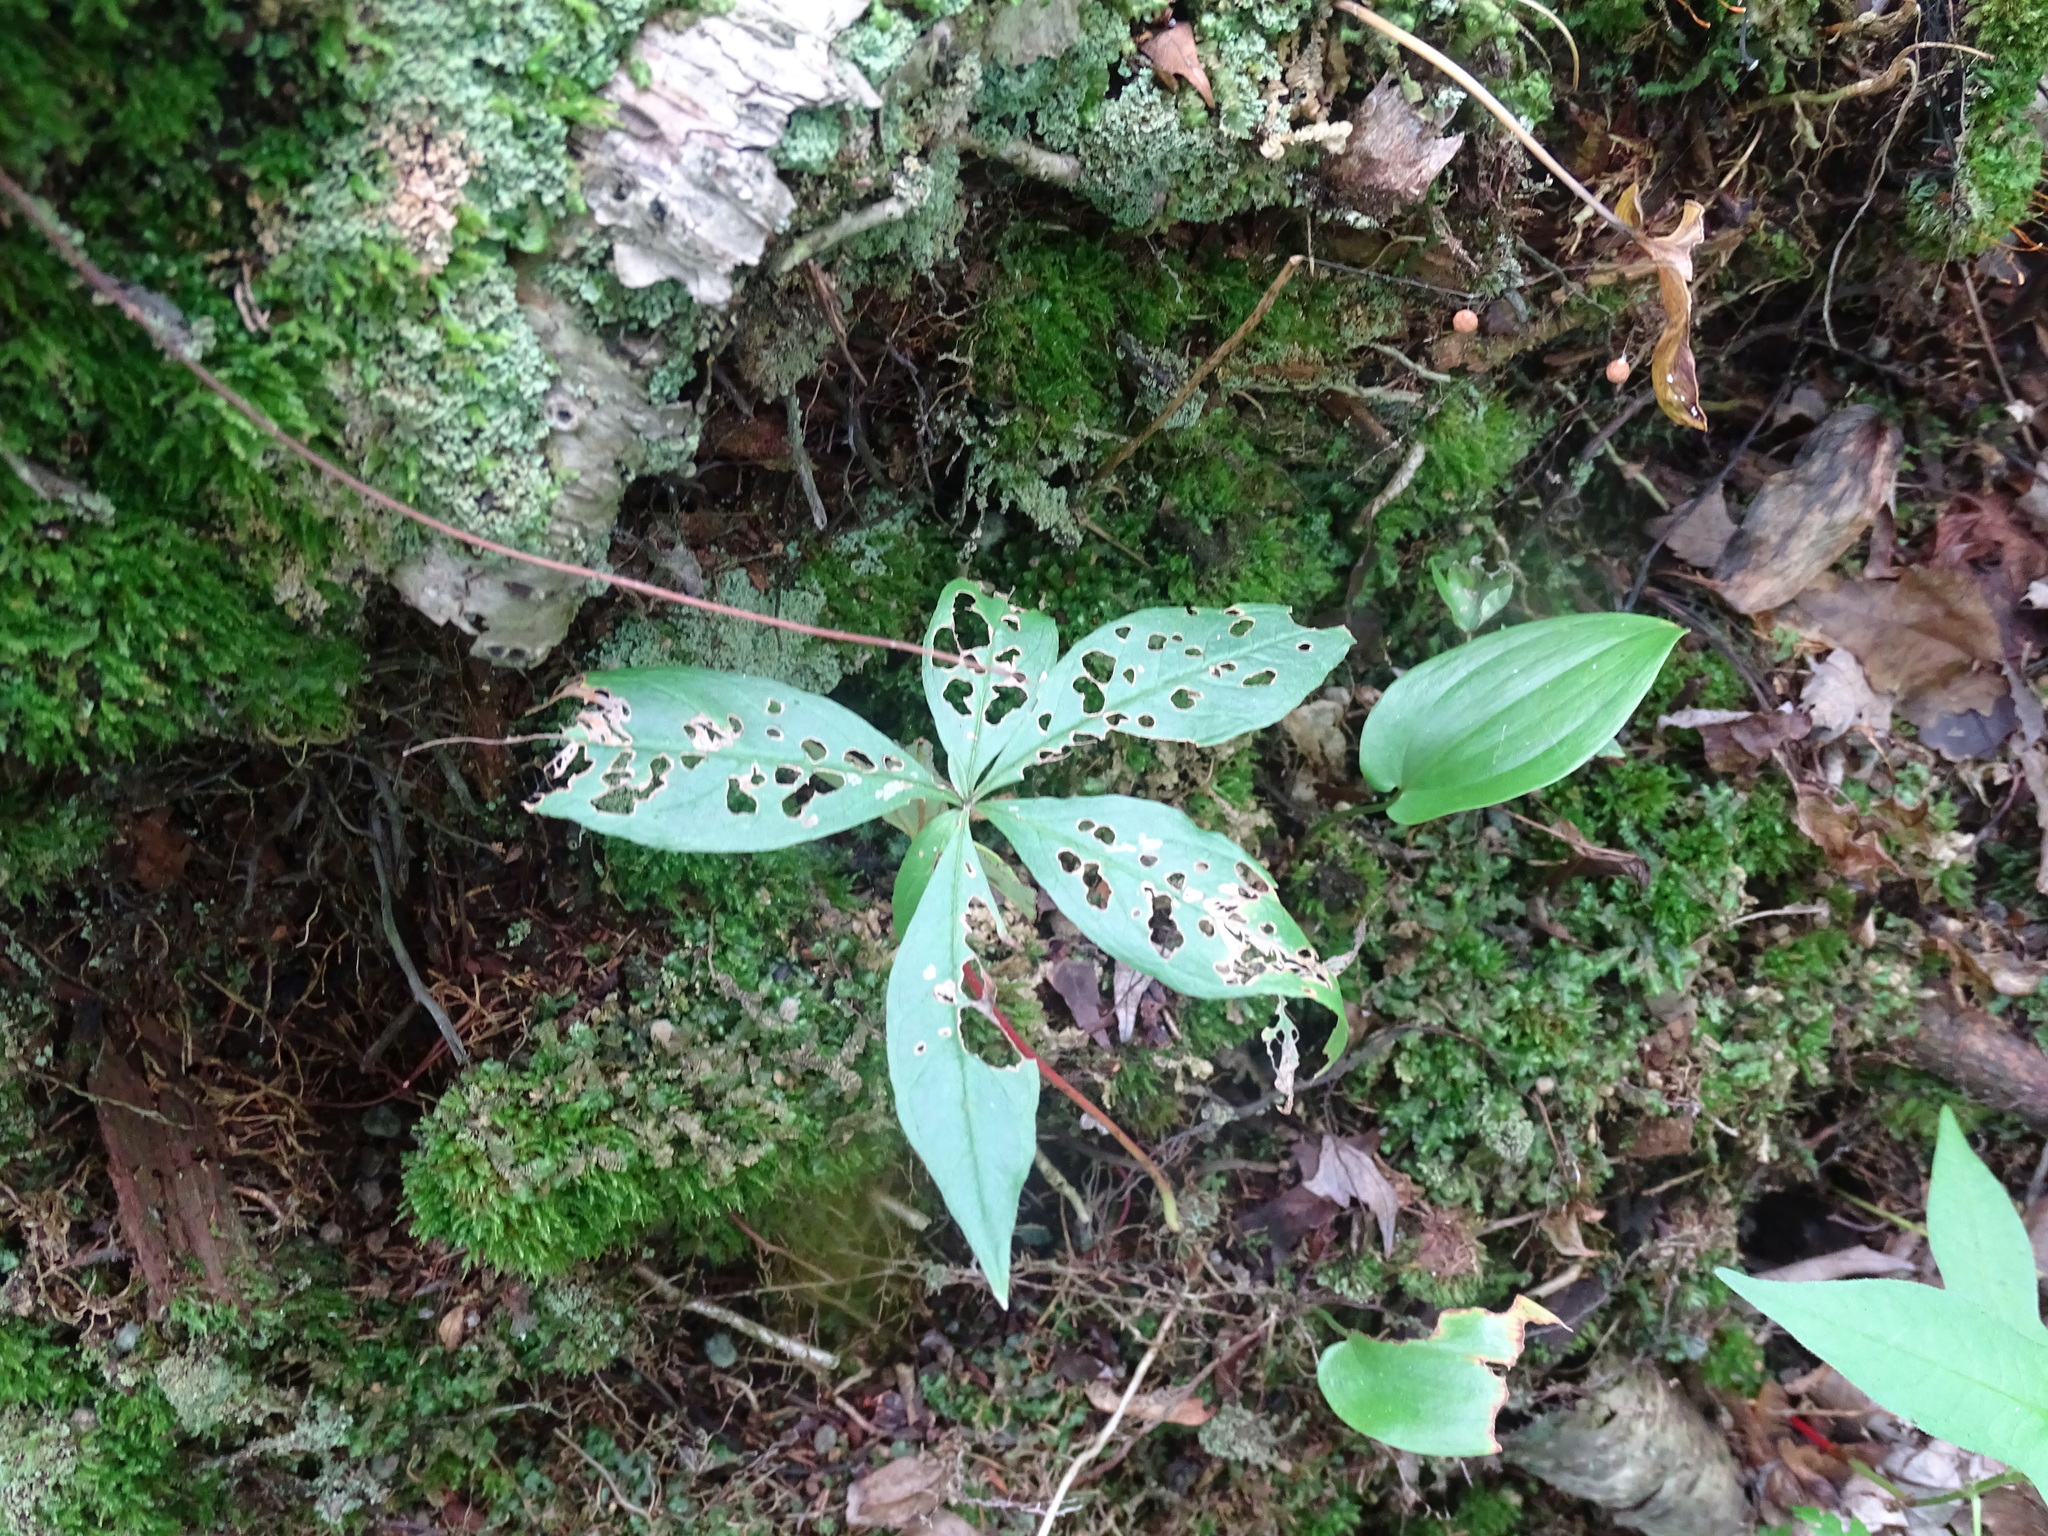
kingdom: Plantae
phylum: Tracheophyta
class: Magnoliopsida
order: Ericales
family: Primulaceae
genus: Lysimachia
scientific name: Lysimachia borealis
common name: American starflower
